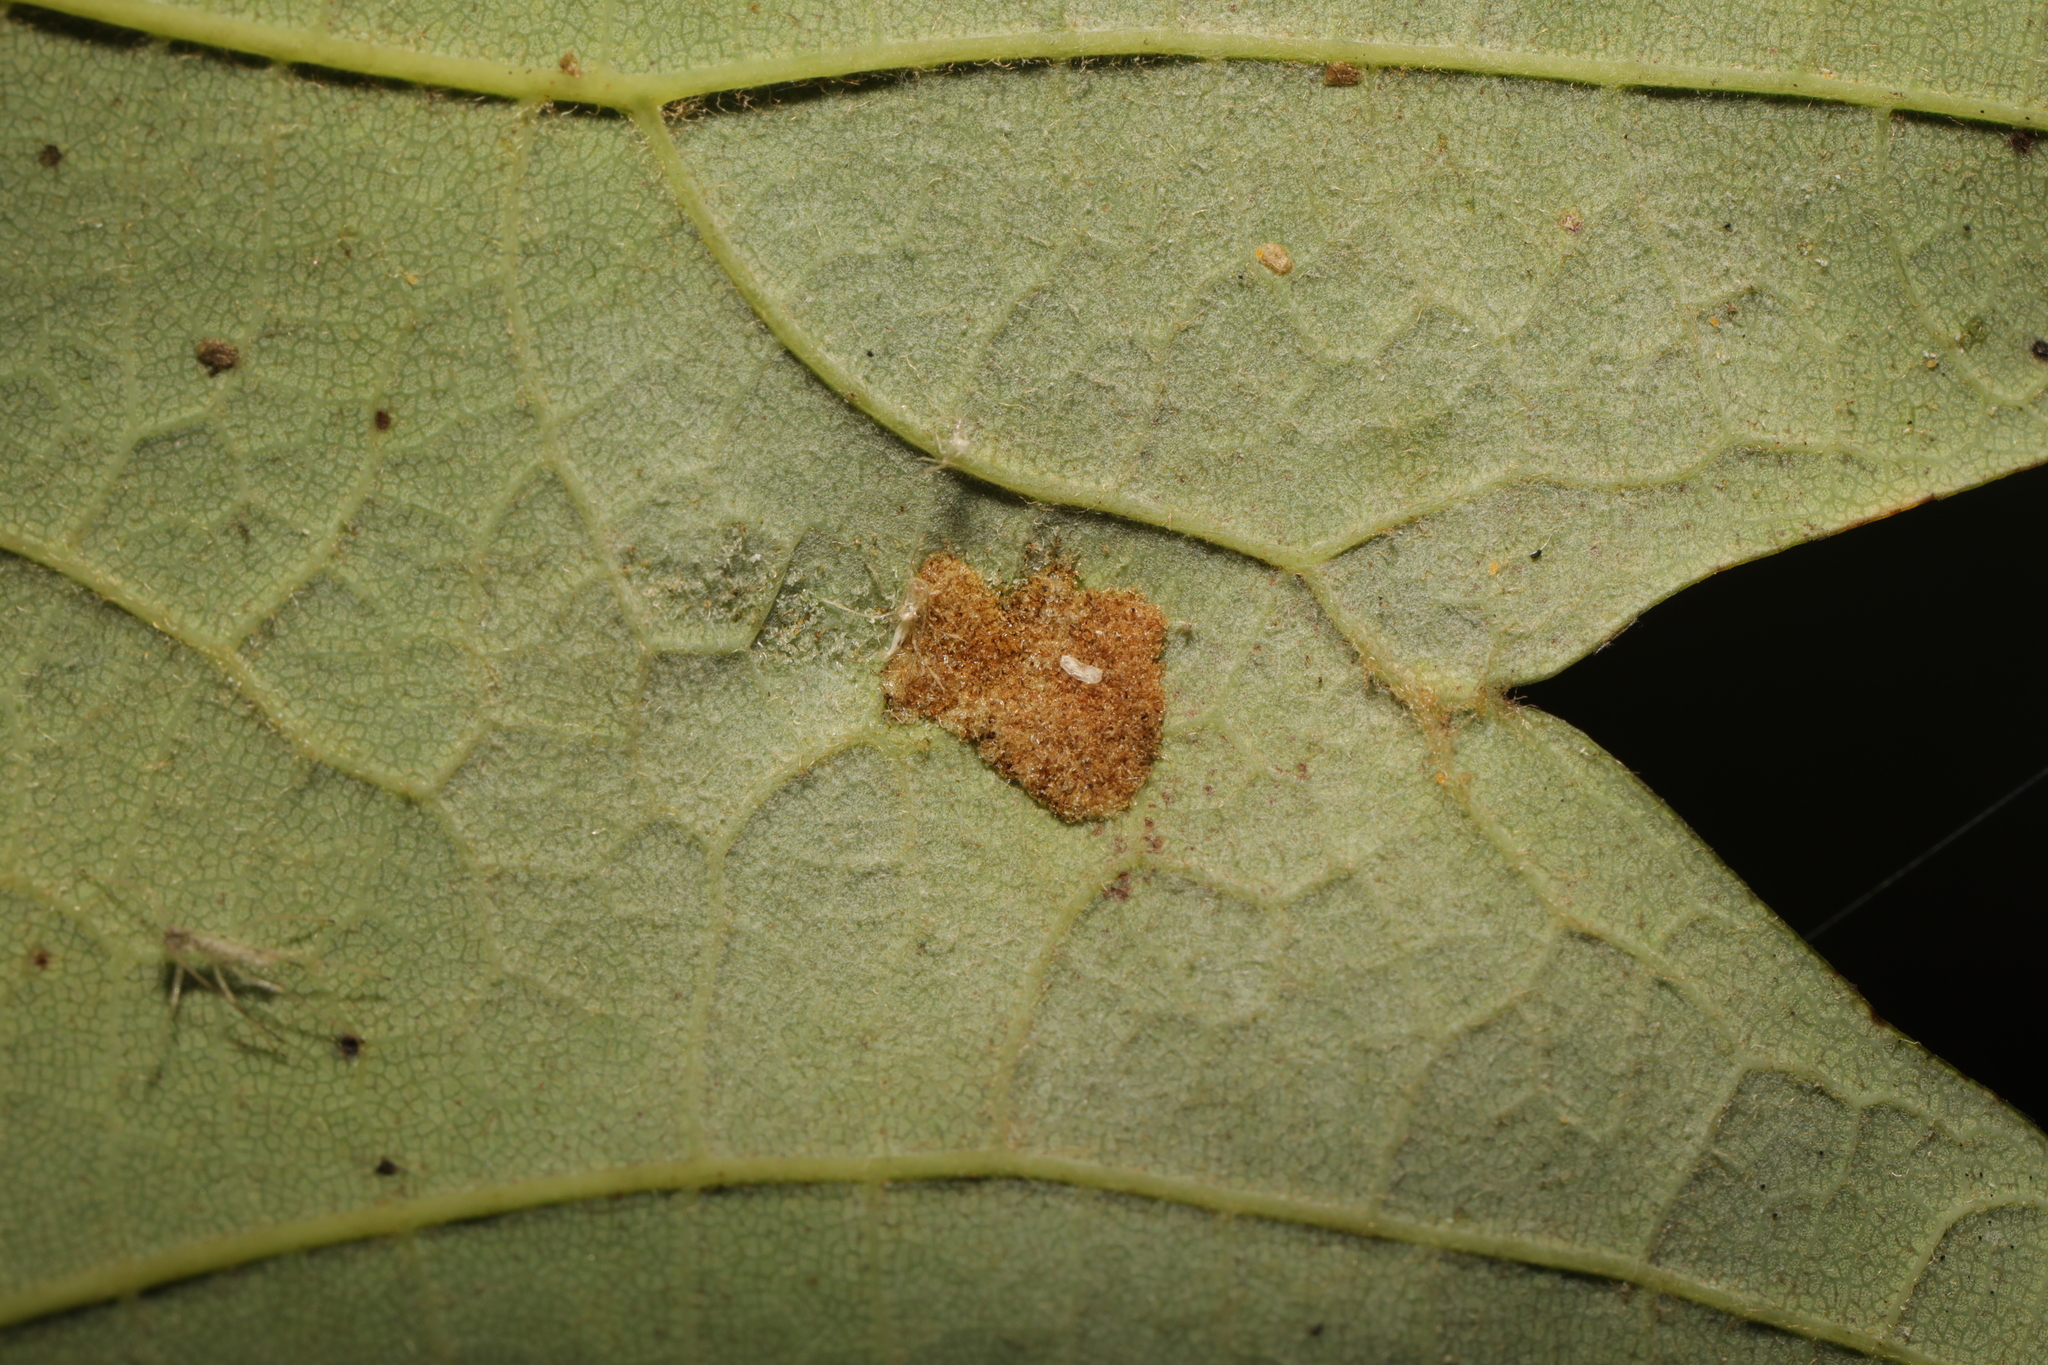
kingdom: Animalia
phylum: Arthropoda
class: Arachnida
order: Trombidiformes
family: Eriophyidae
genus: Aceria
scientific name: Aceria pseudoplatani
